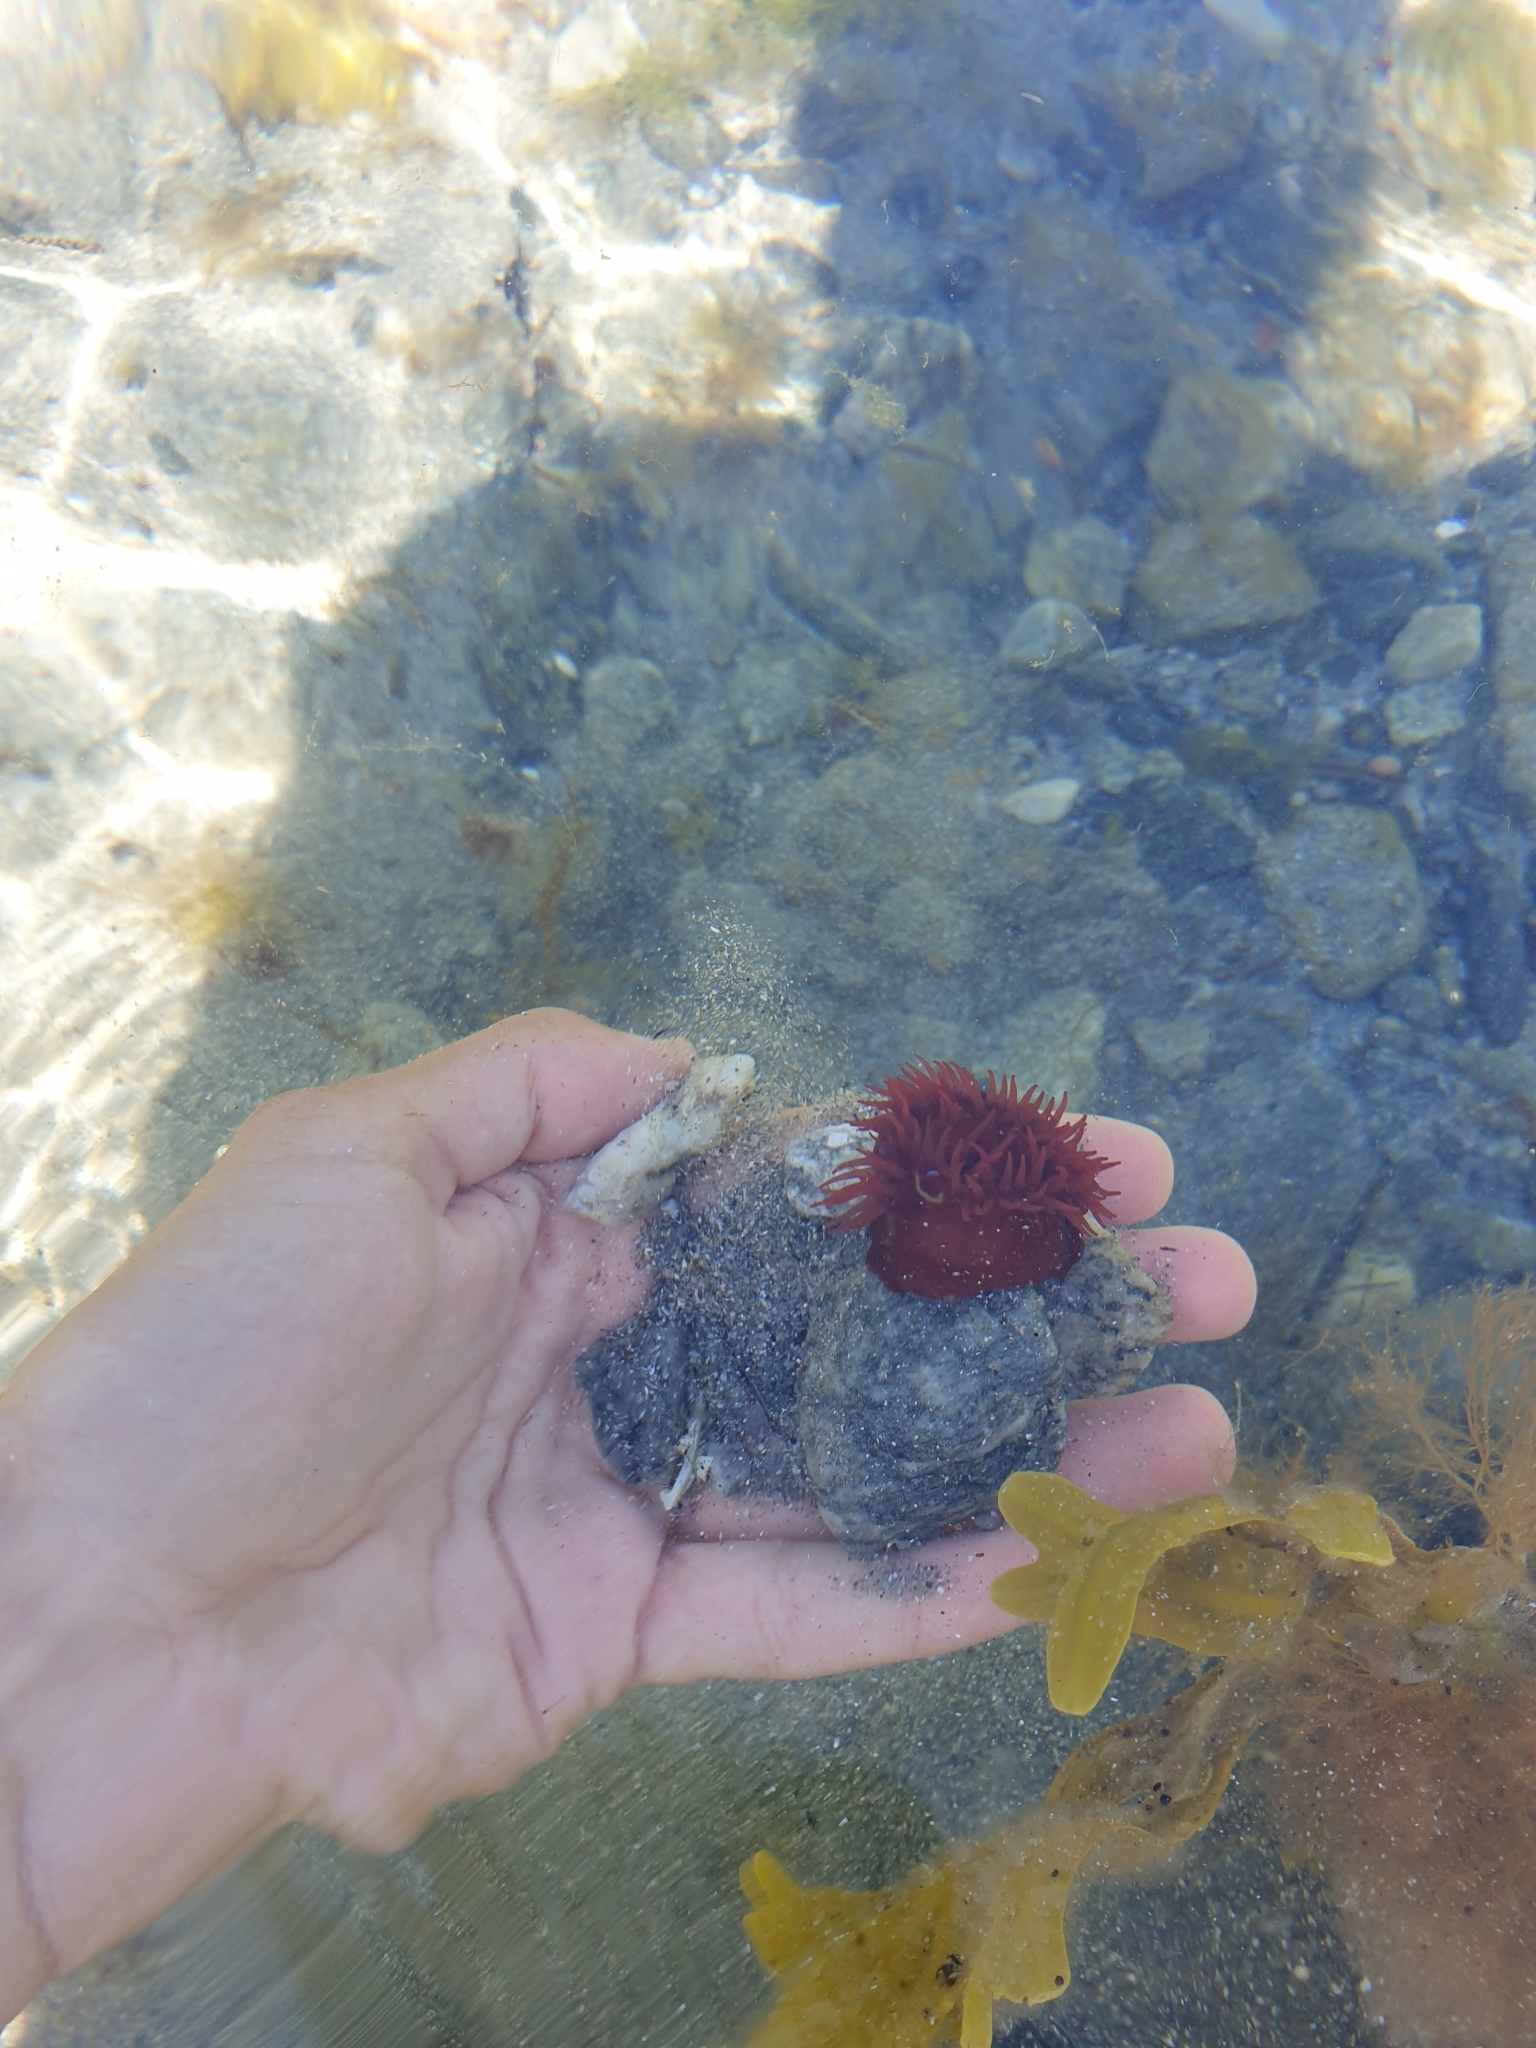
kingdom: Animalia
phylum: Cnidaria
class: Anthozoa
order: Actiniaria
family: Actiniidae
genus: Actinia
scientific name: Actinia equina
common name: Beadlet anemone
